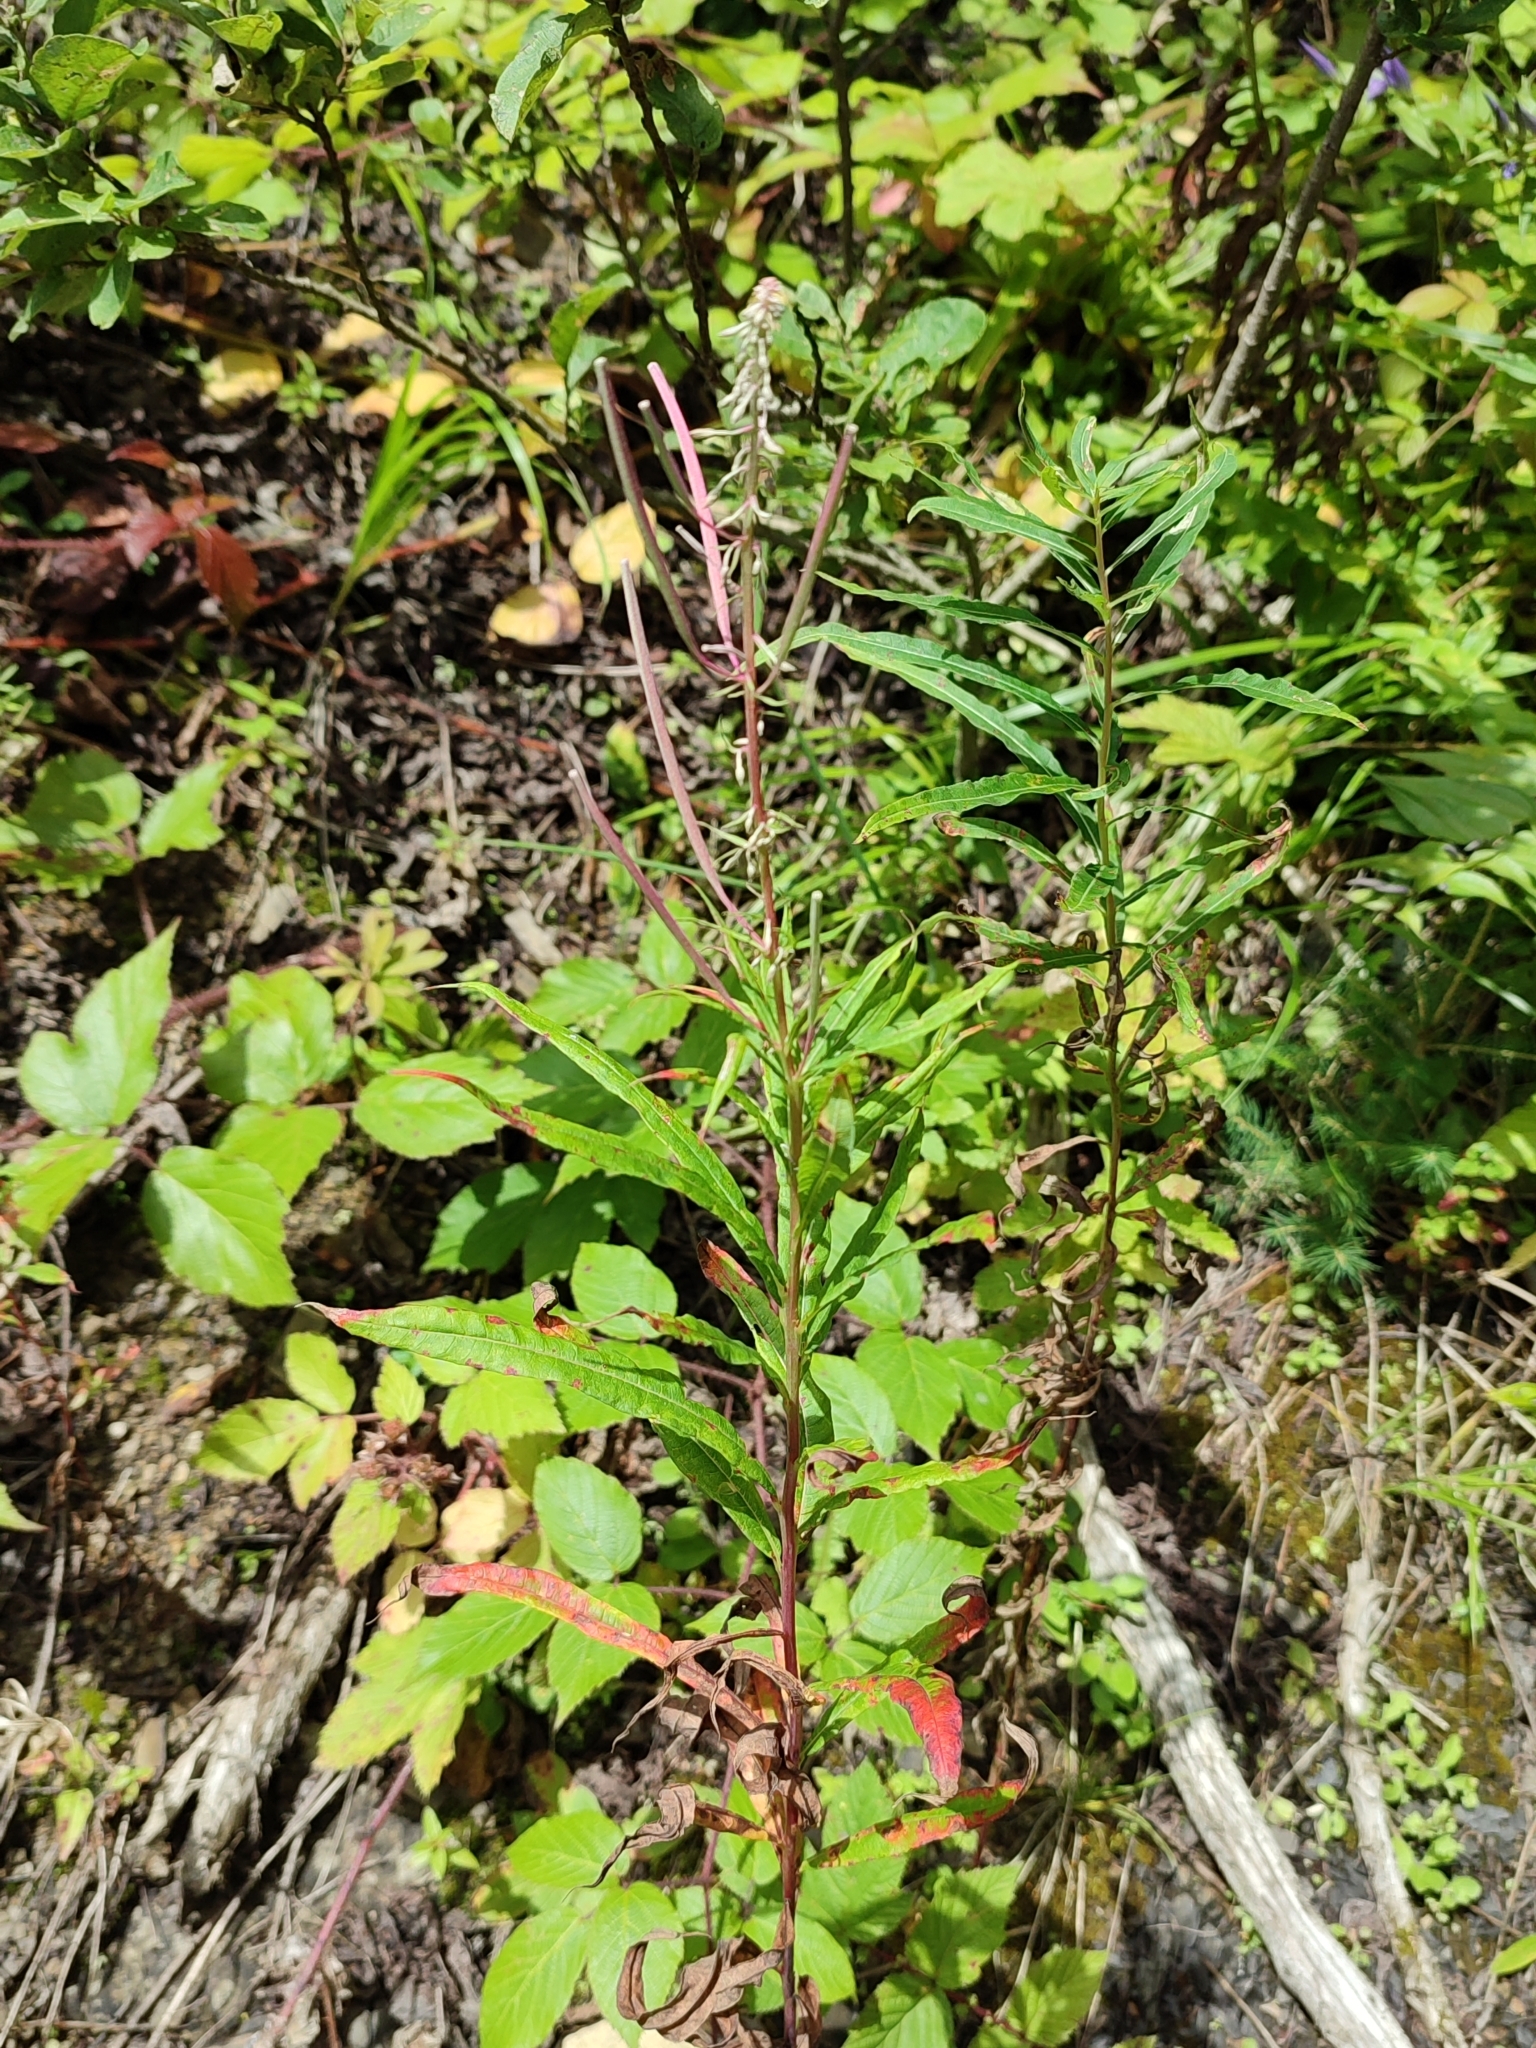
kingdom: Plantae
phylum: Tracheophyta
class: Magnoliopsida
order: Myrtales
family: Onagraceae
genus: Chamaenerion
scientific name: Chamaenerion angustifolium
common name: Fireweed
